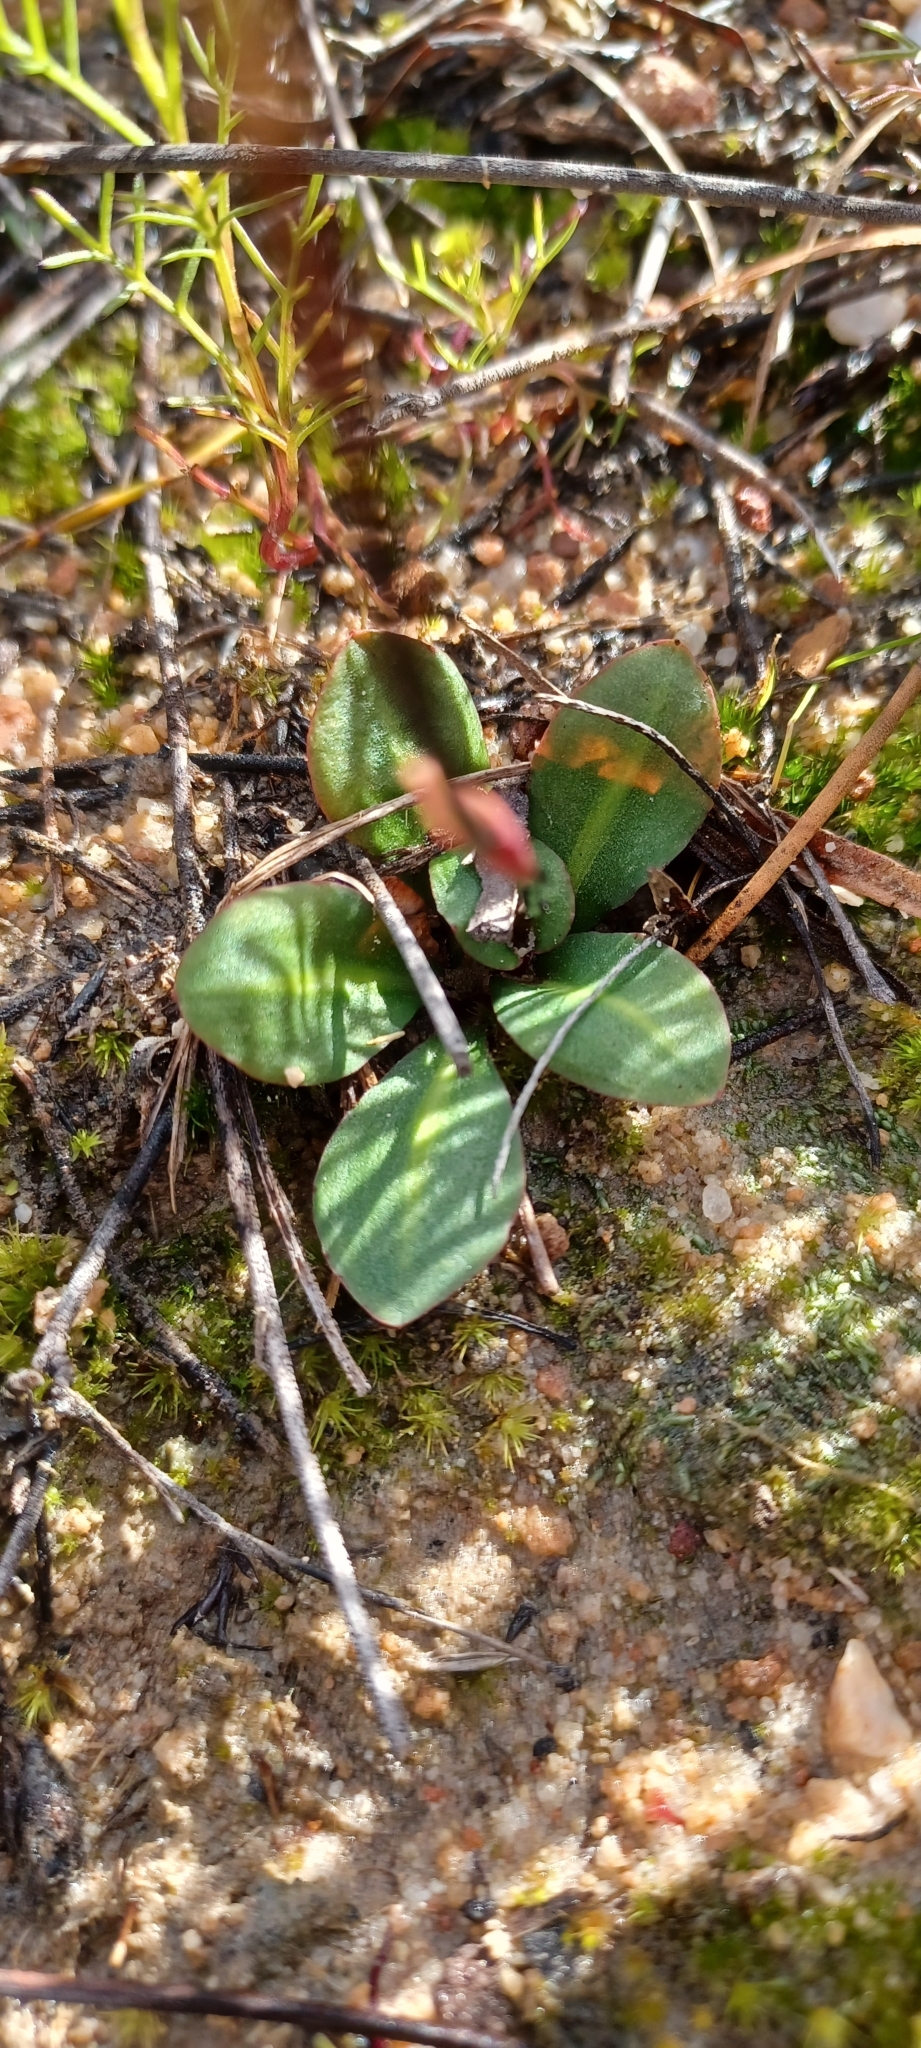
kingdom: Plantae
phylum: Tracheophyta
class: Liliopsida
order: Asparagales
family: Orchidaceae
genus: Disa
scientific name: Disa bifida
